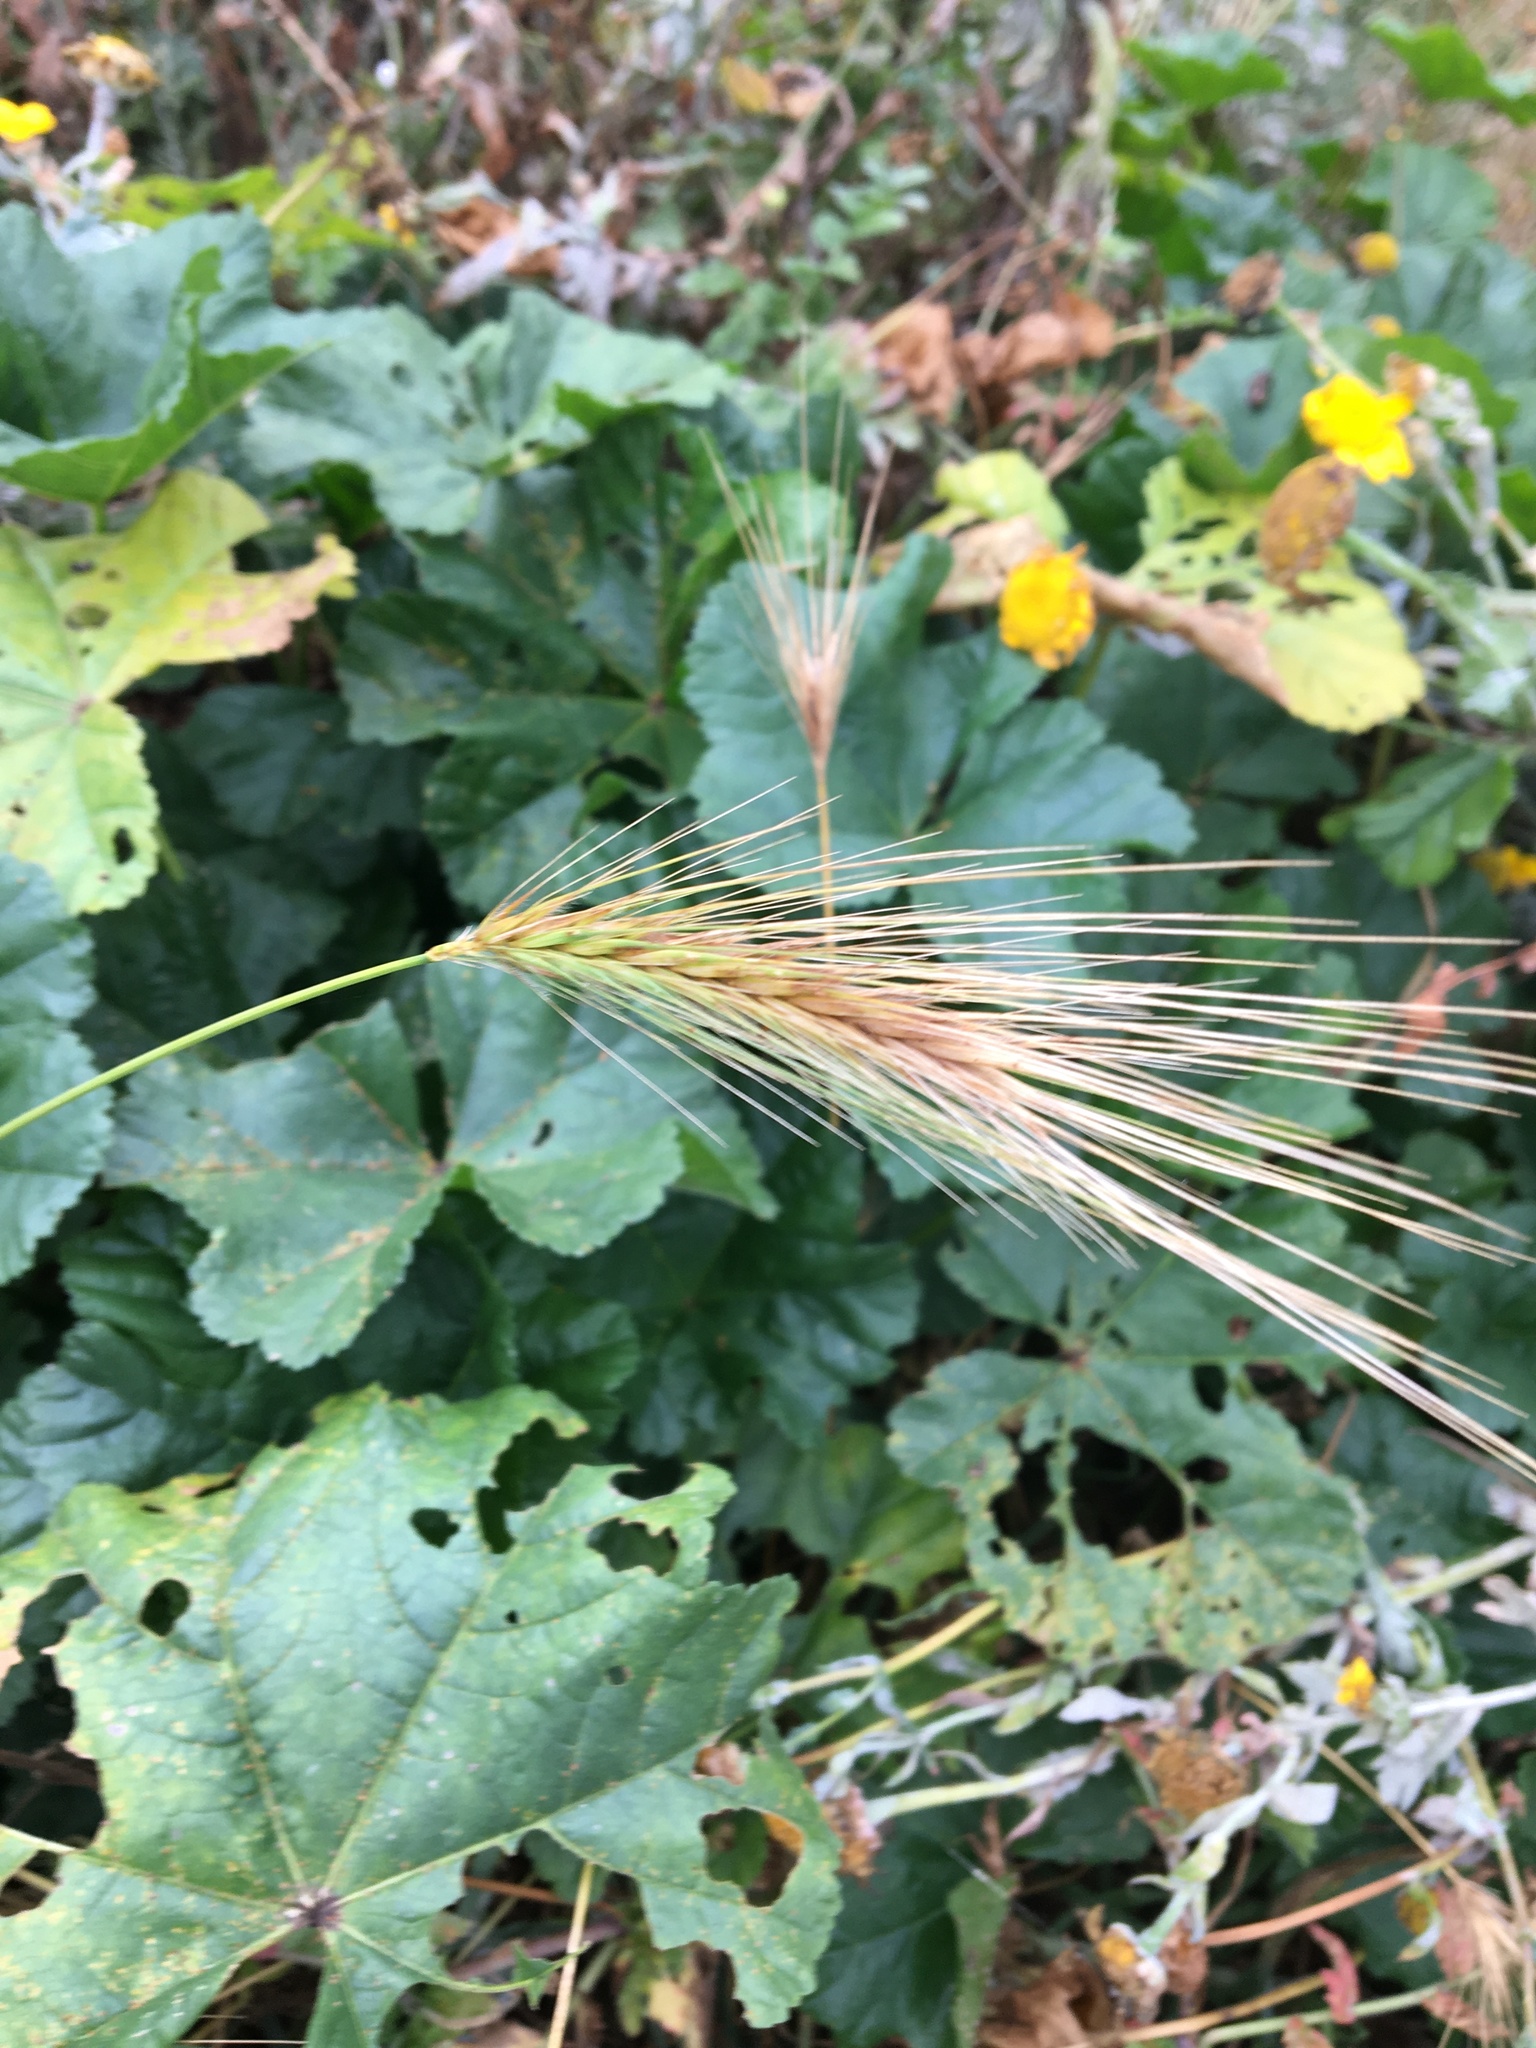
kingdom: Plantae
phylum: Tracheophyta
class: Liliopsida
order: Poales
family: Poaceae
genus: Hordeum
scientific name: Hordeum murinum
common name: Wall barley
